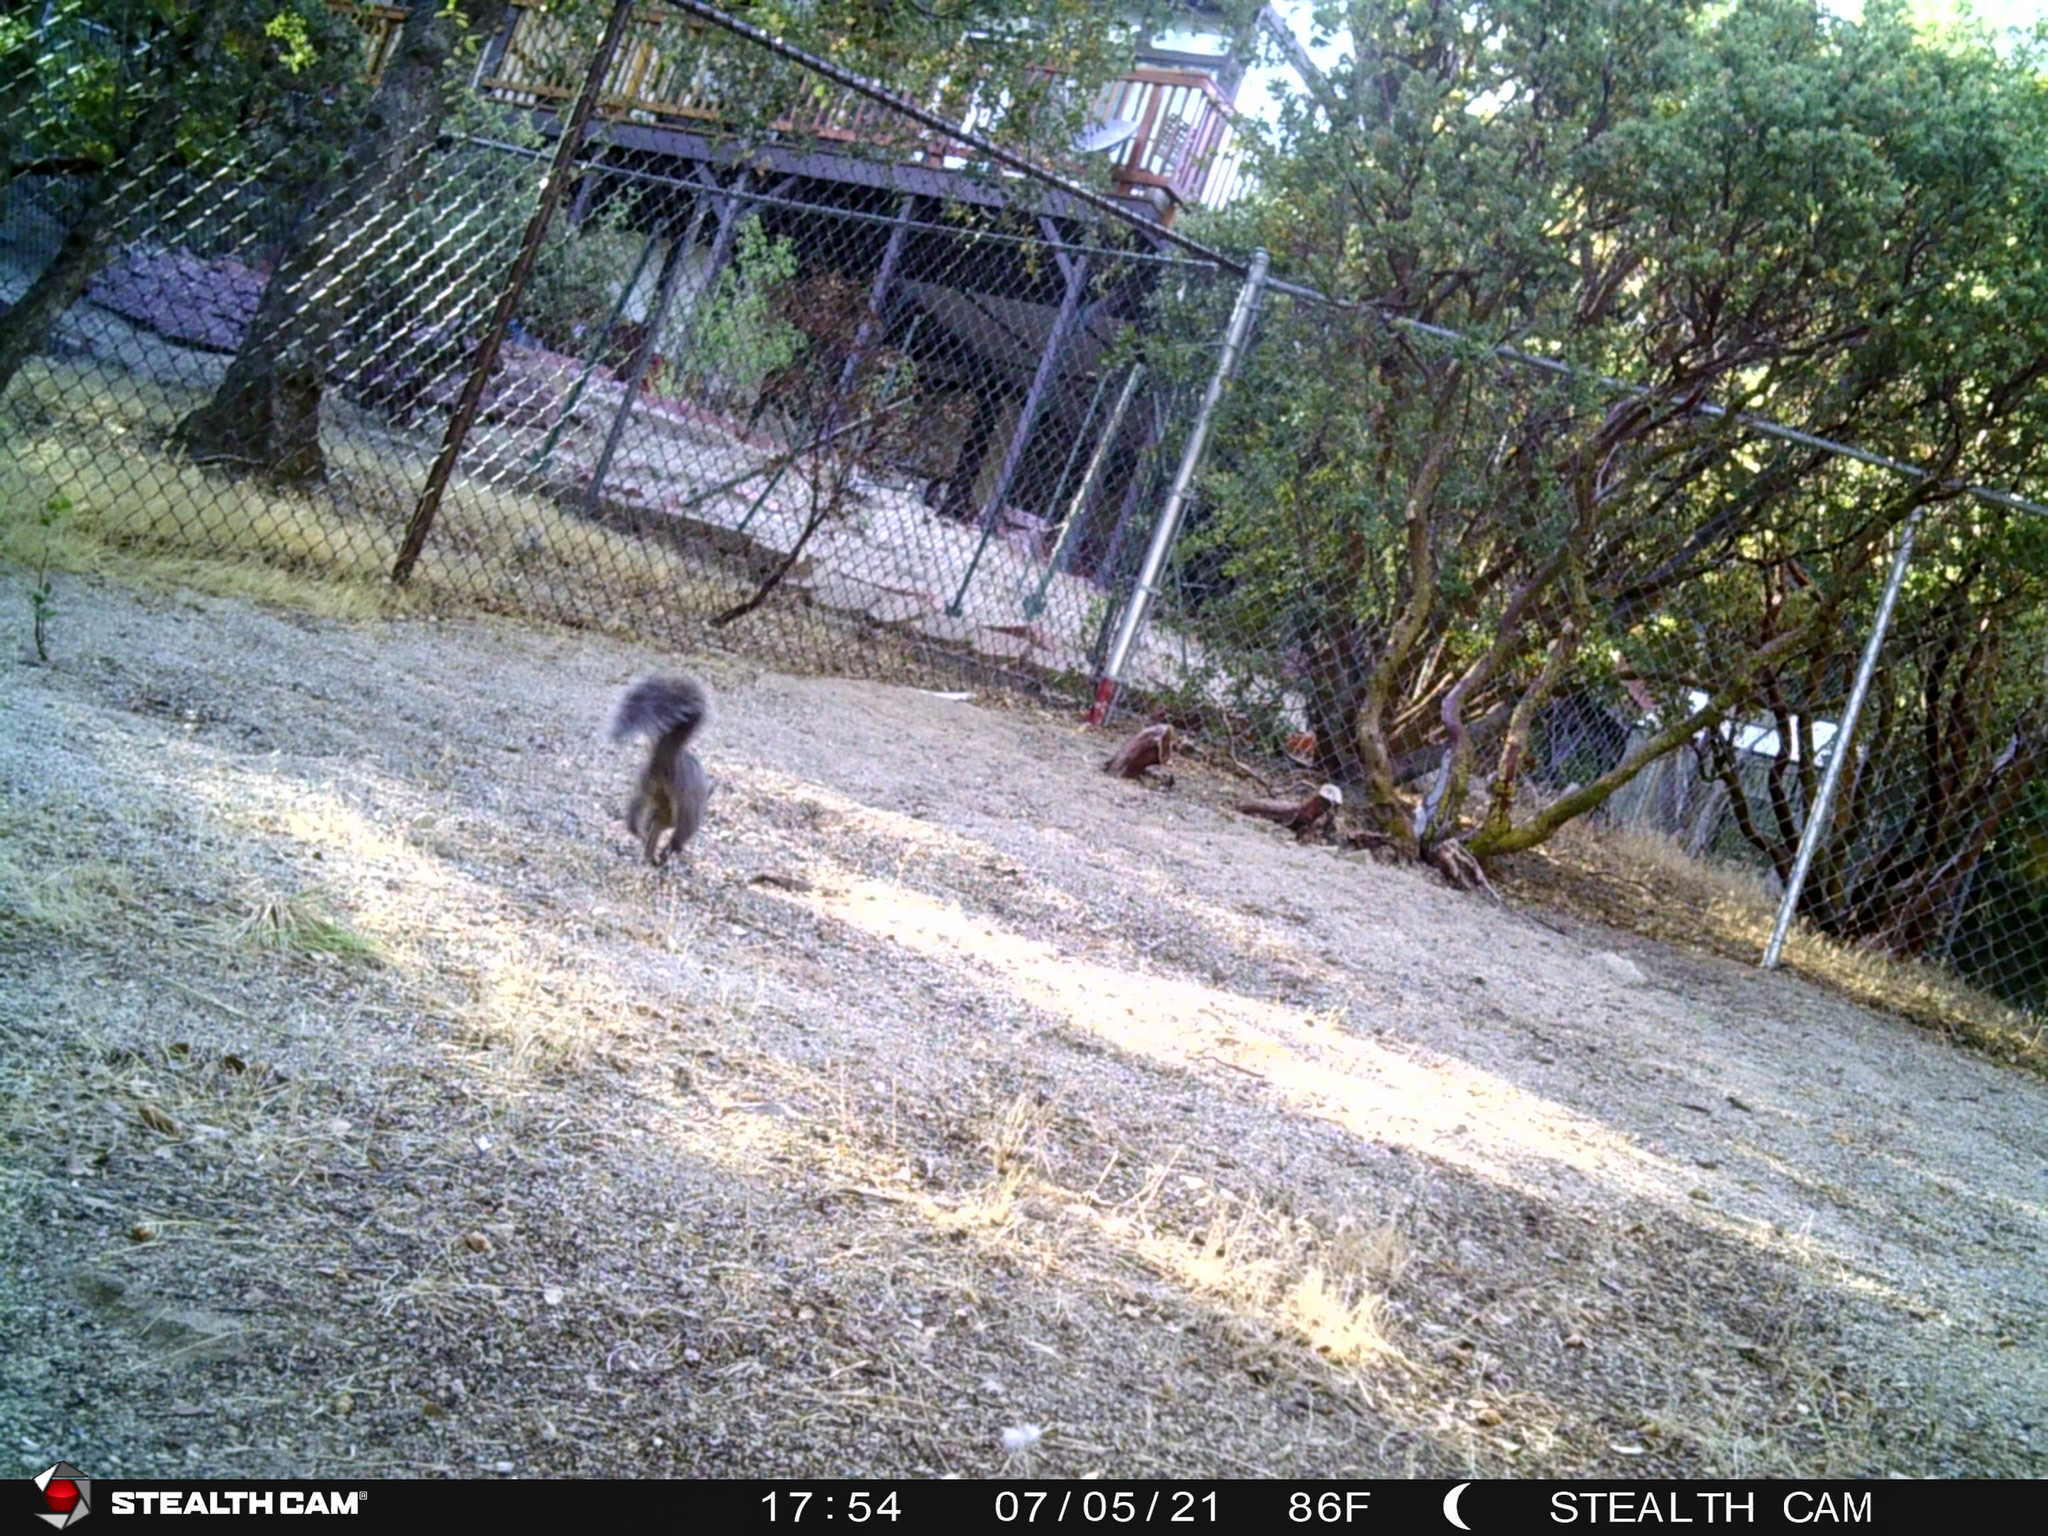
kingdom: Animalia
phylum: Chordata
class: Mammalia
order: Rodentia
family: Sciuridae
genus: Sciurus
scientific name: Sciurus griseus
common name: Western gray squirrel
